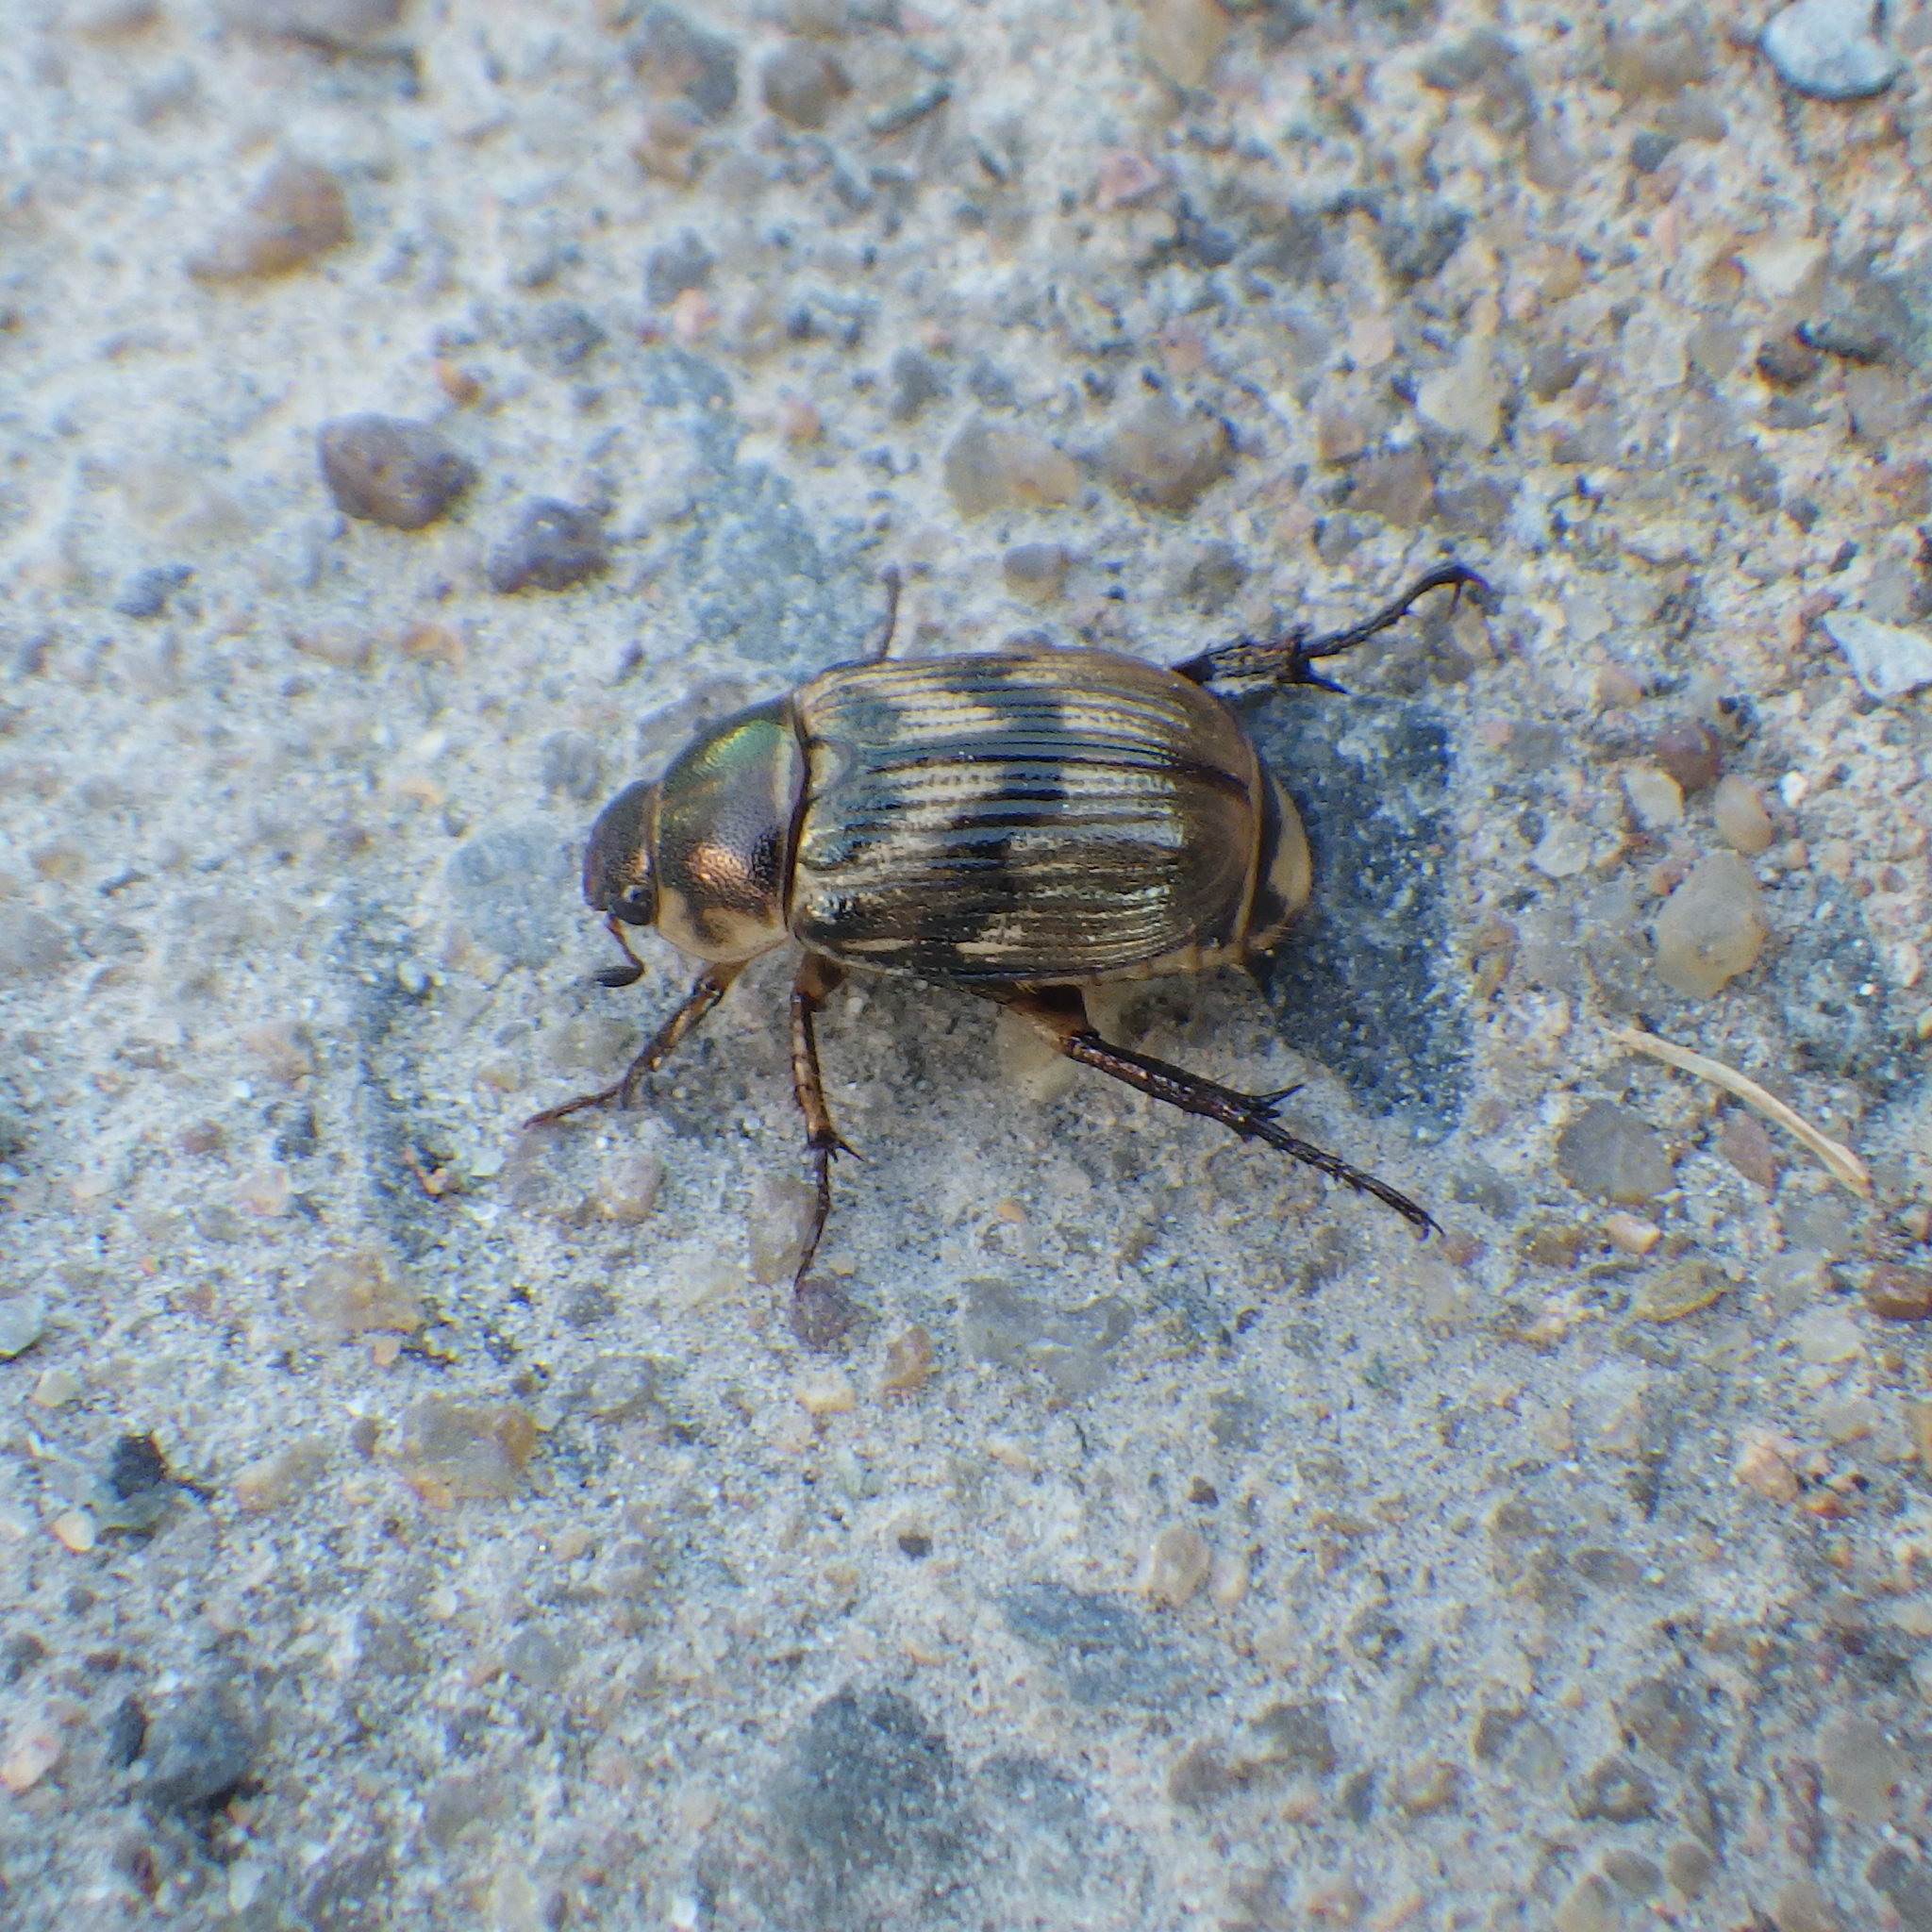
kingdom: Animalia
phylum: Arthropoda
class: Insecta
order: Coleoptera
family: Scarabaeidae
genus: Exomala
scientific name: Exomala orientalis
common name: Oriental beetle
